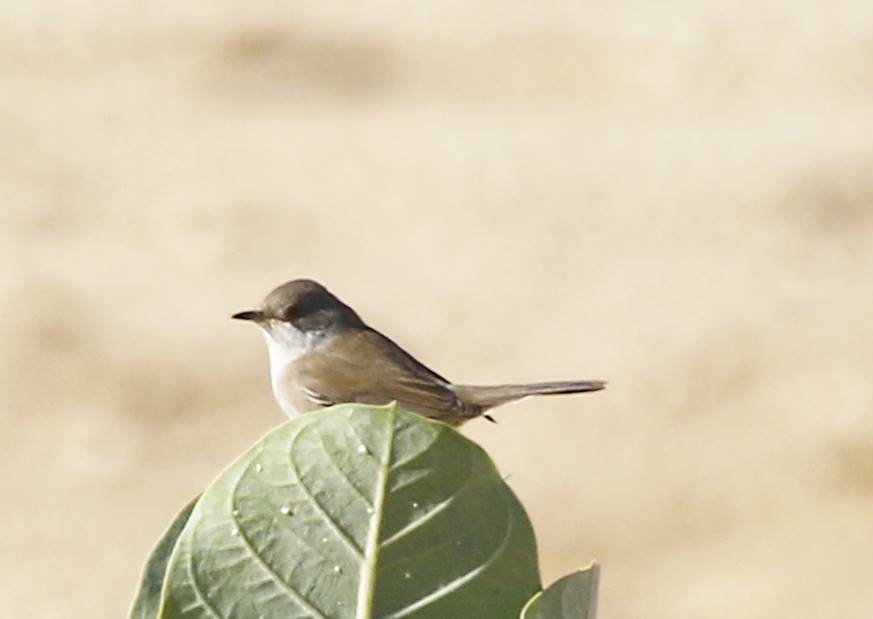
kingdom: Animalia
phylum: Chordata
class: Aves
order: Passeriformes
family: Sylviidae
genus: Sylvia
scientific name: Sylvia curruca
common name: Lesser whitethroat
